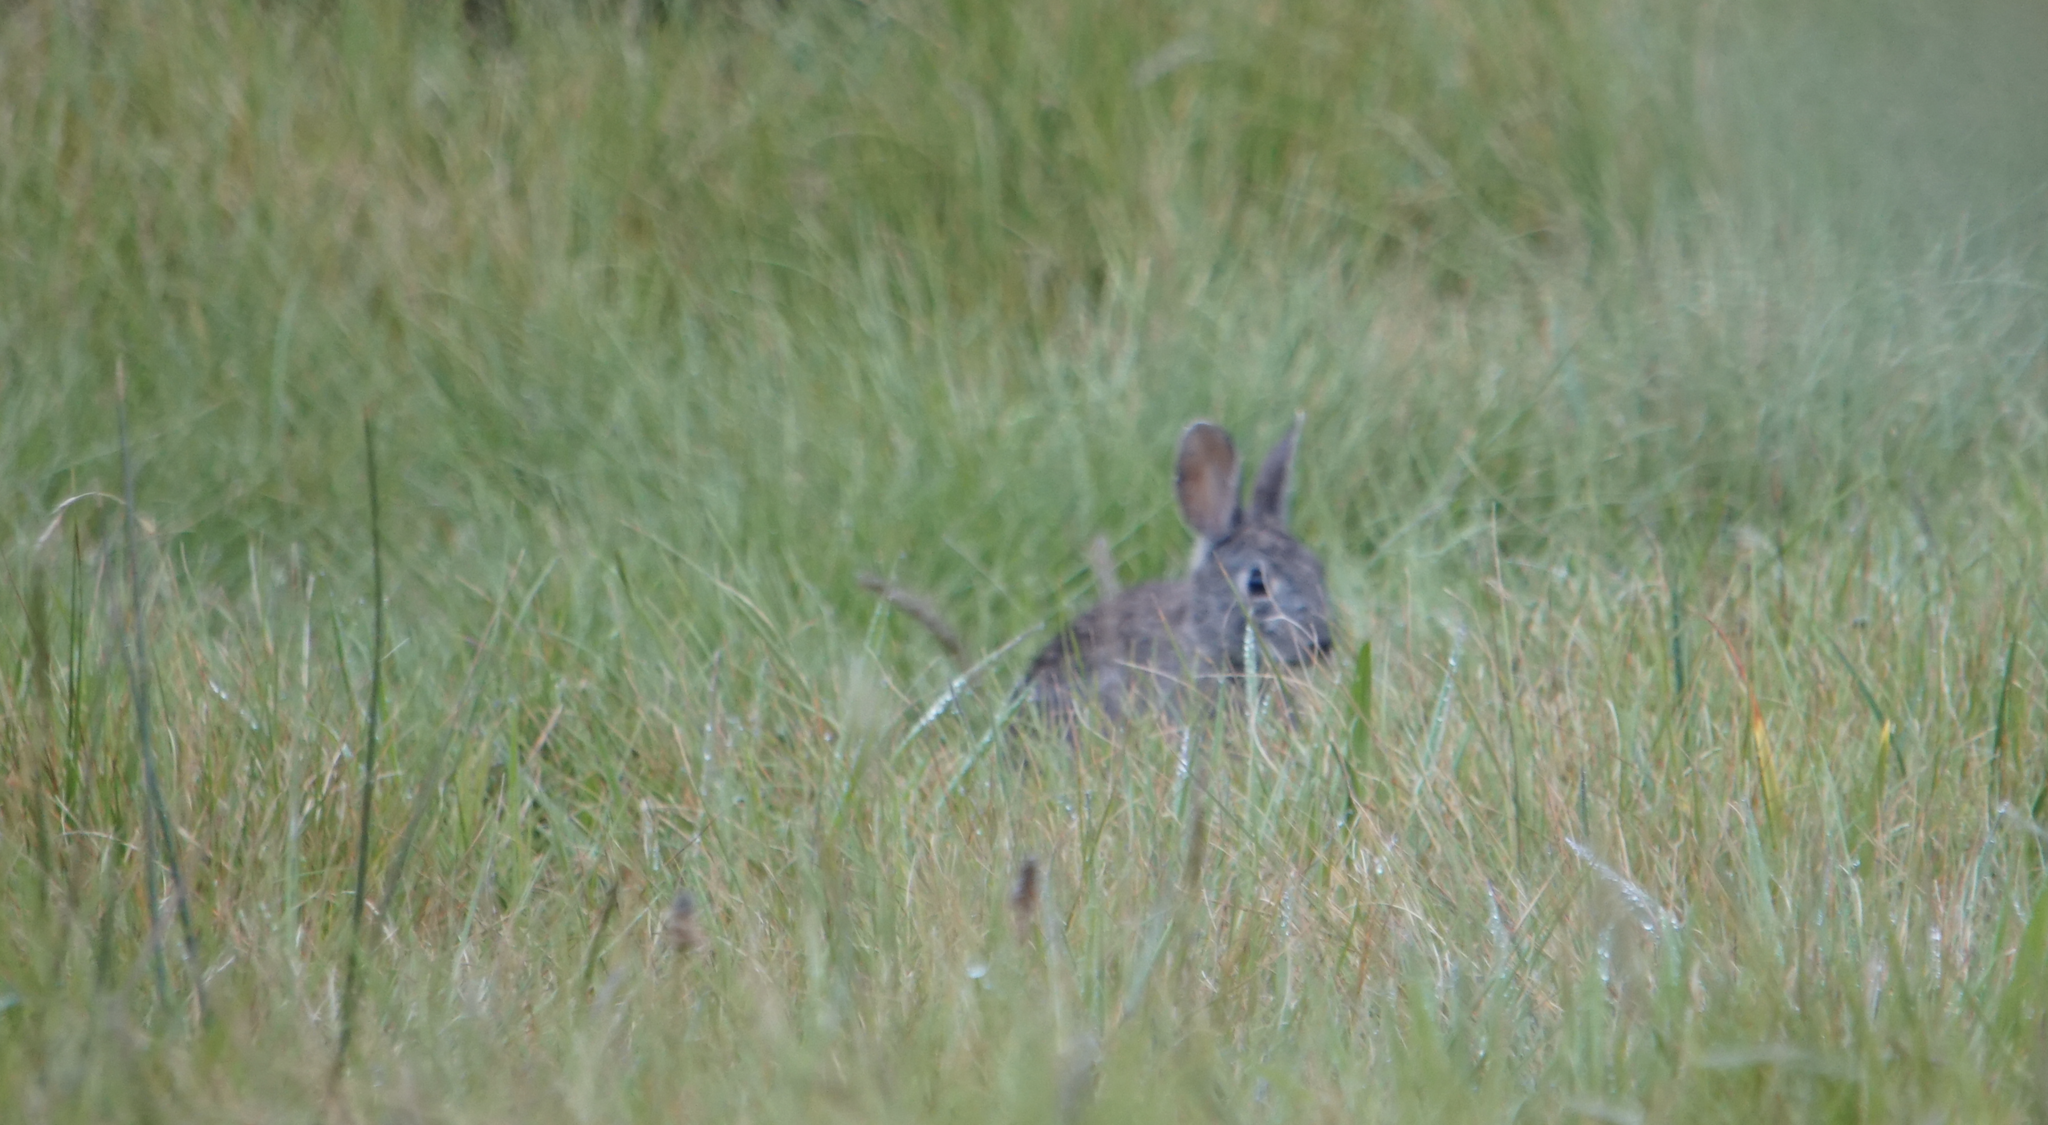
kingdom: Animalia
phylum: Chordata
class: Mammalia
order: Lagomorpha
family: Leporidae
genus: Sylvilagus
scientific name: Sylvilagus bachmani
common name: Brush rabbit
